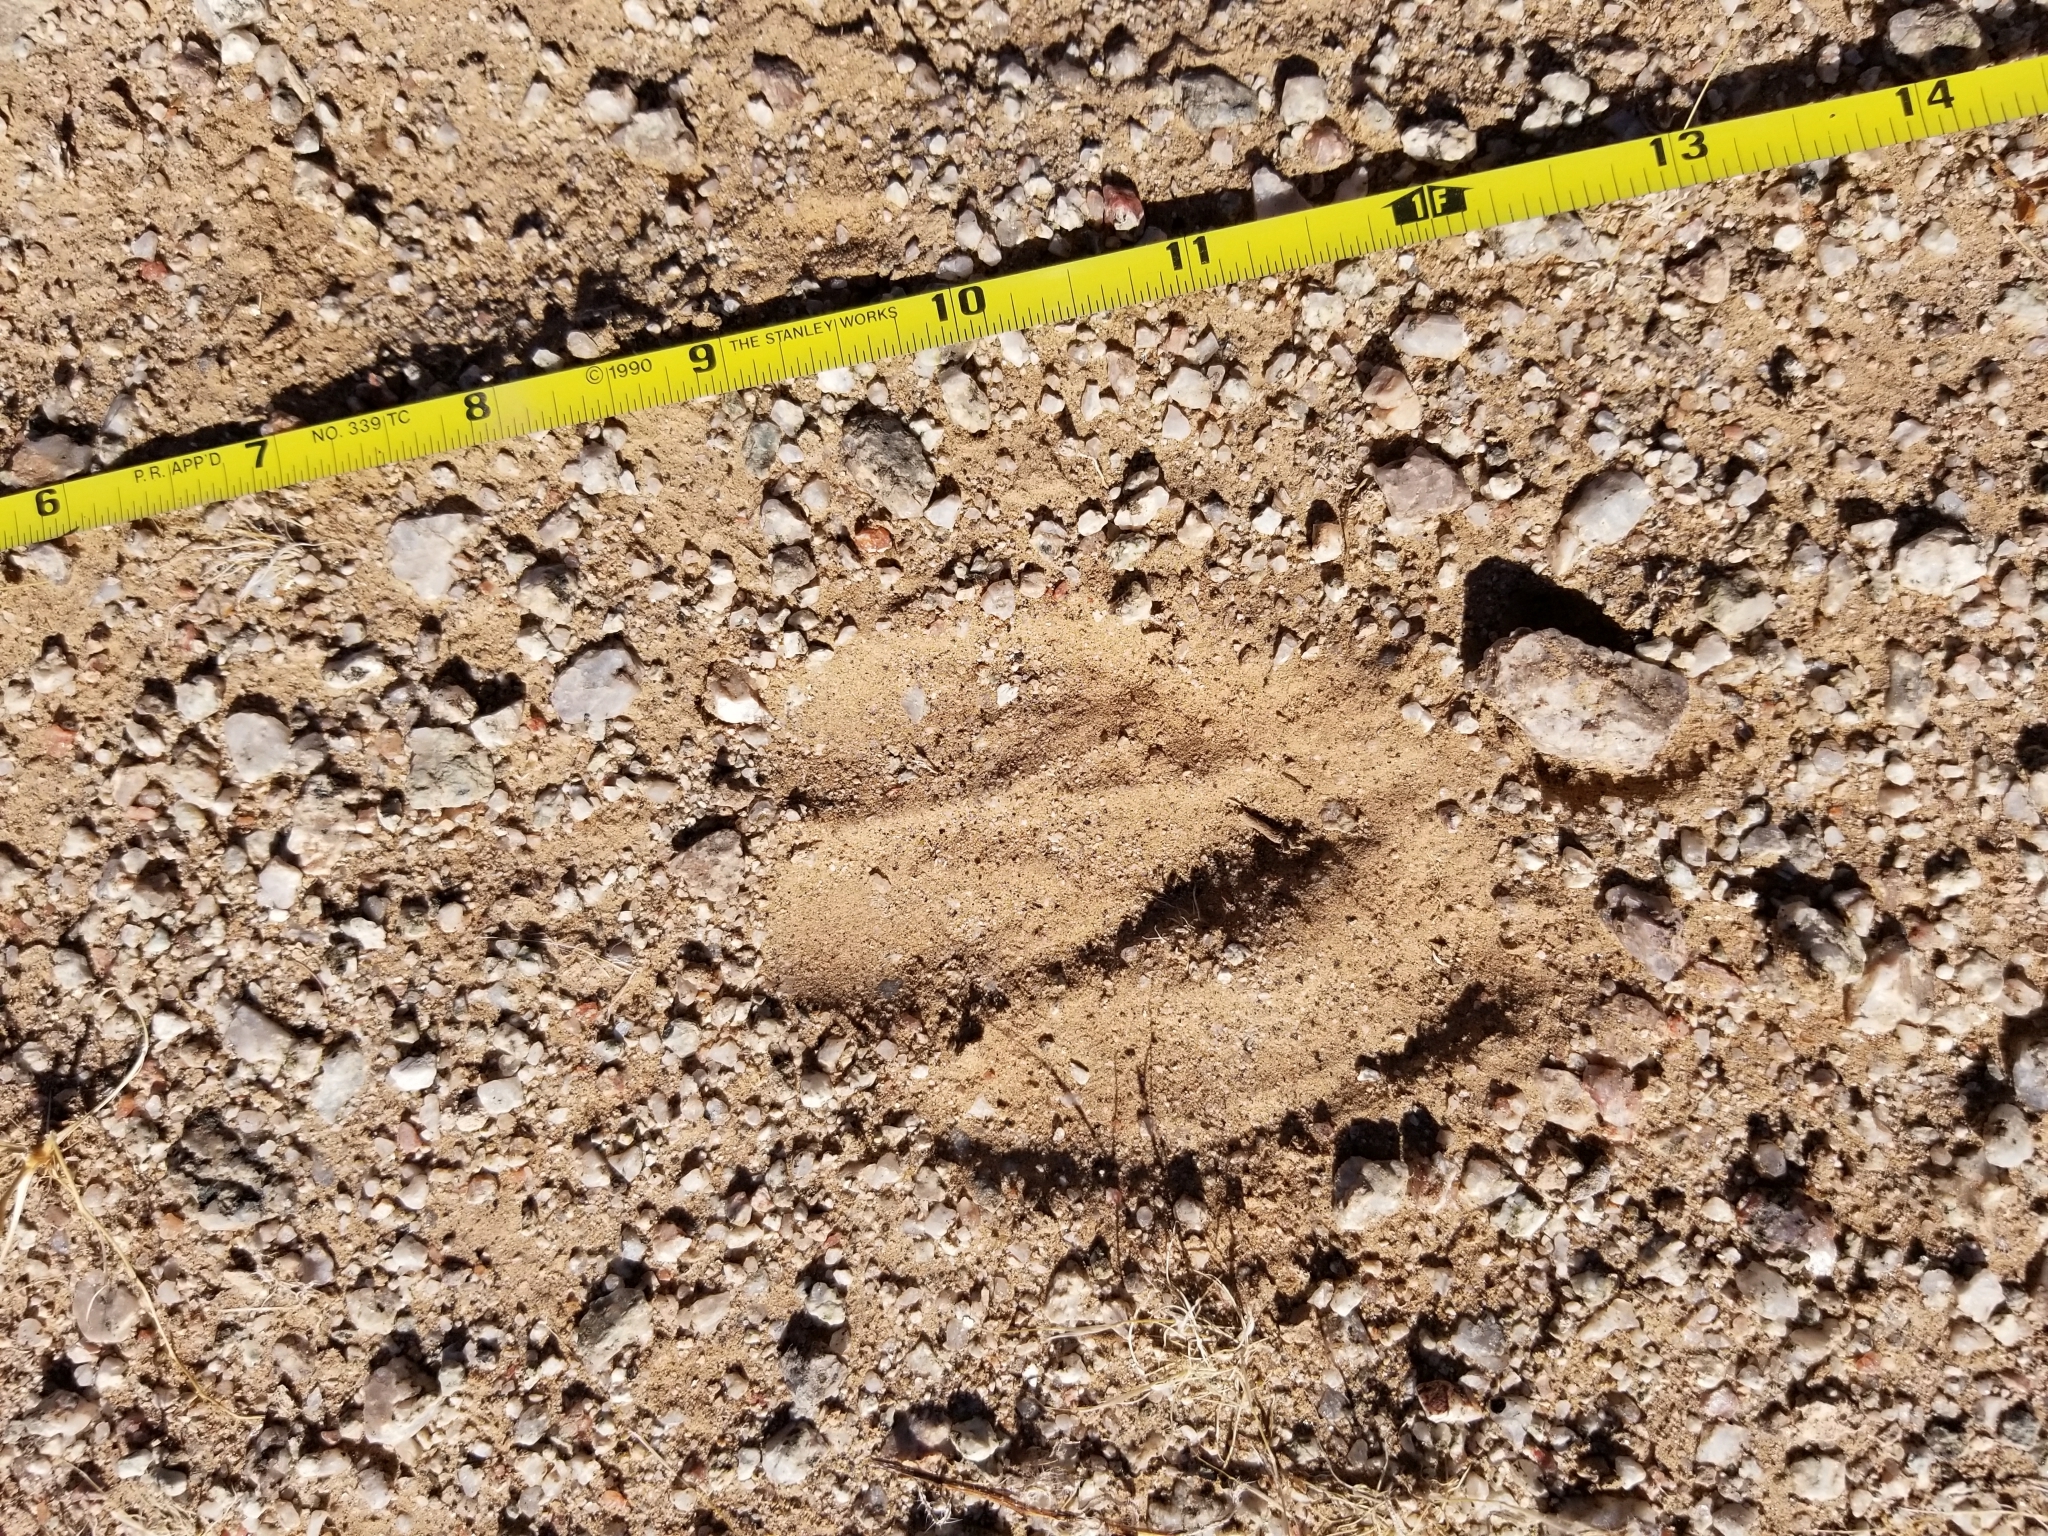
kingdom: Animalia
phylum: Chordata
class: Mammalia
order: Artiodactyla
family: Cervidae
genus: Odocoileus
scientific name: Odocoileus hemionus
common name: Mule deer
